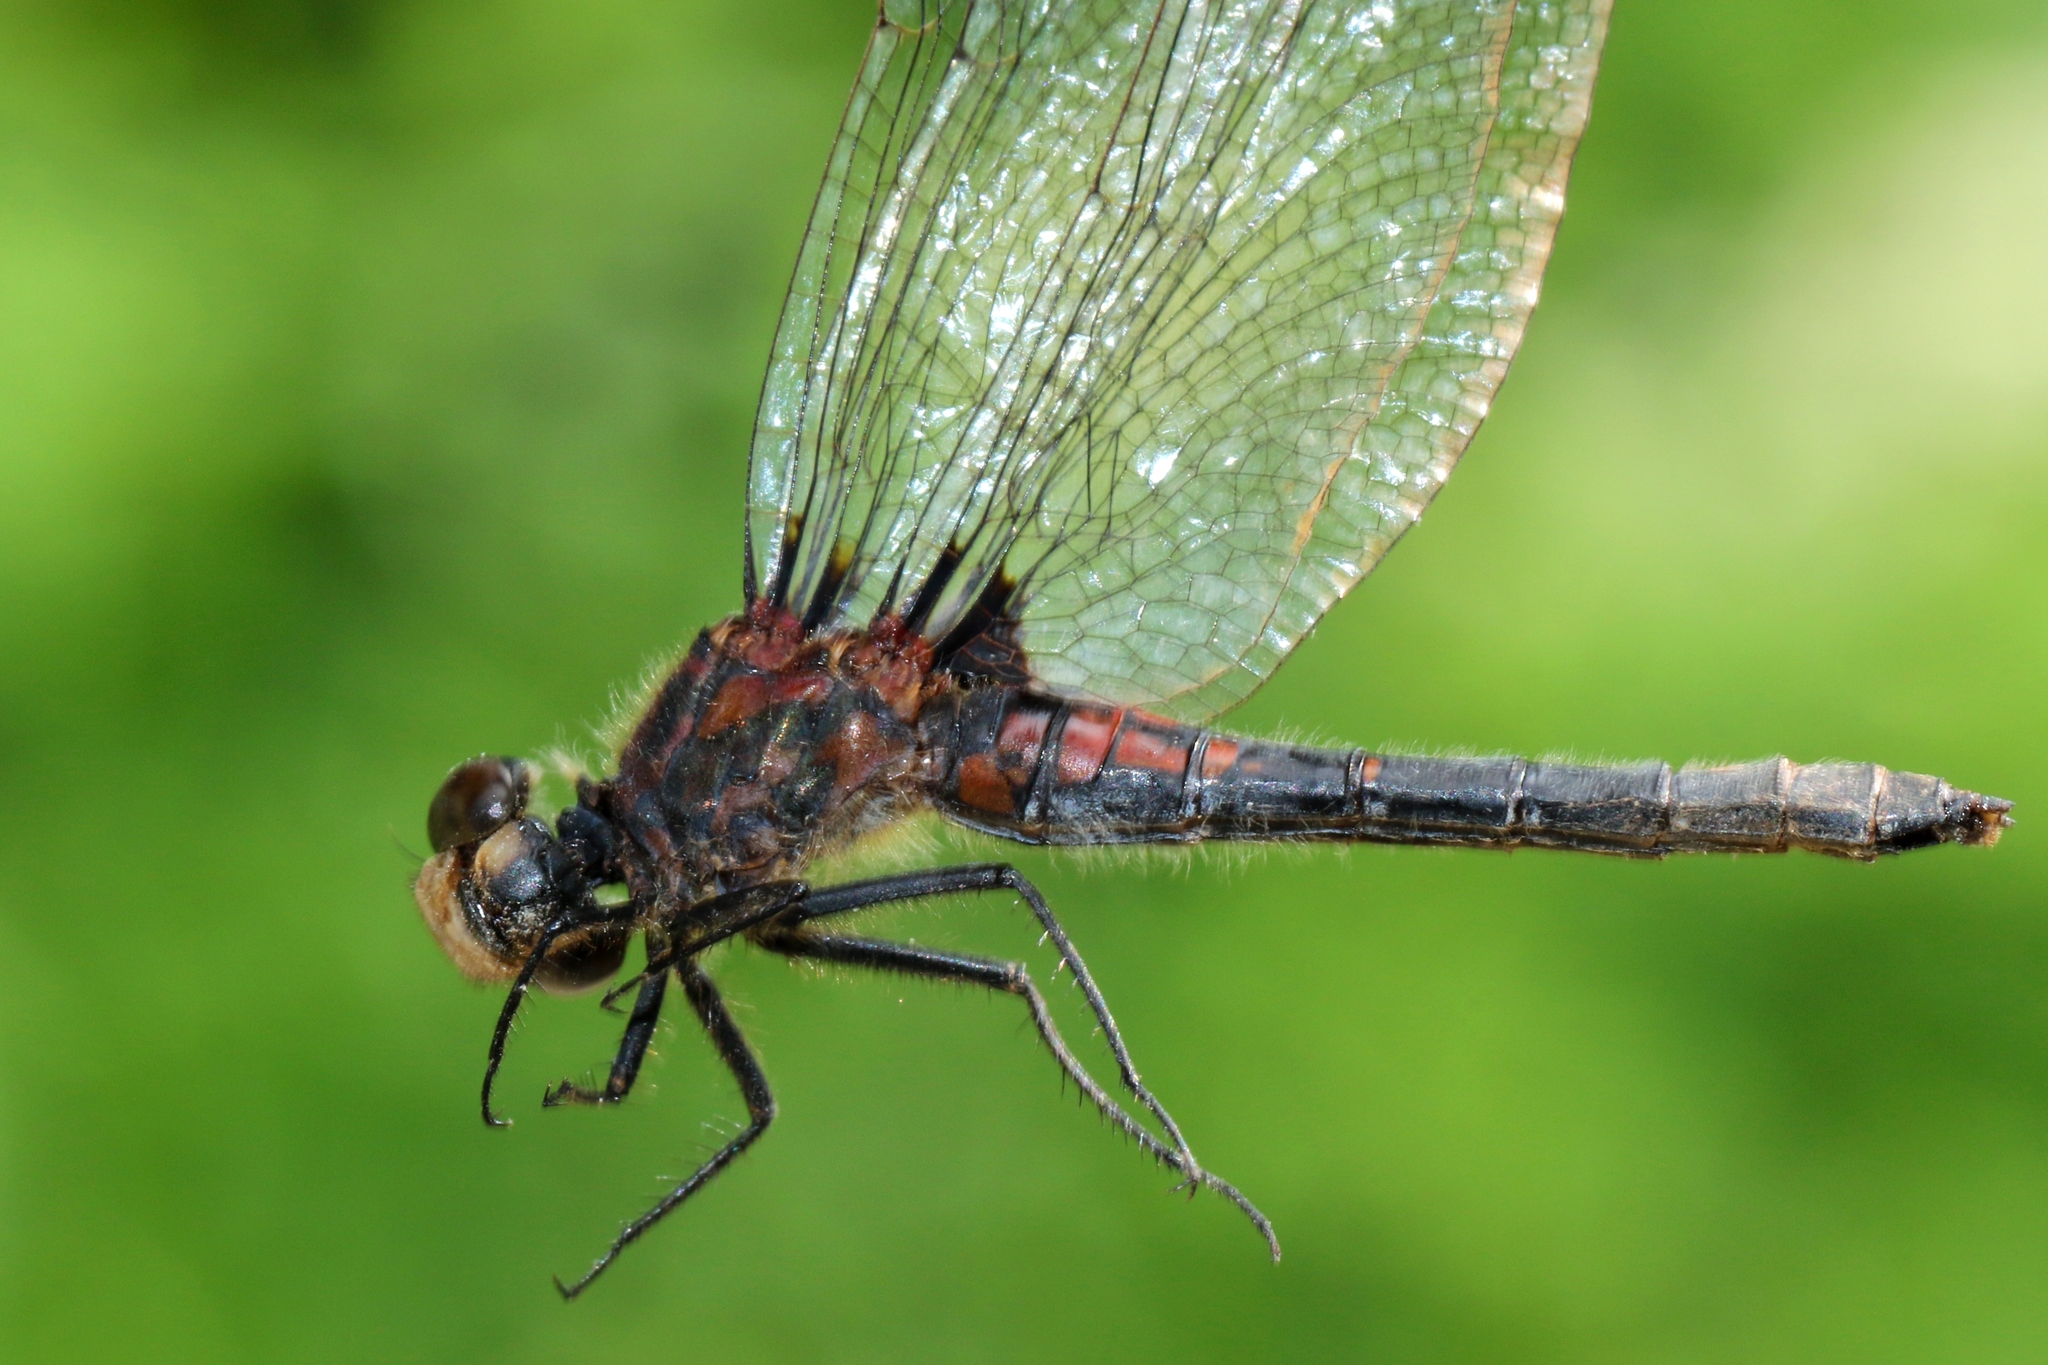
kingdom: Animalia
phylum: Arthropoda
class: Insecta
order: Odonata
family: Libellulidae
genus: Leucorrhinia
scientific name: Leucorrhinia hudsonica
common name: Hudsonian whiteface
